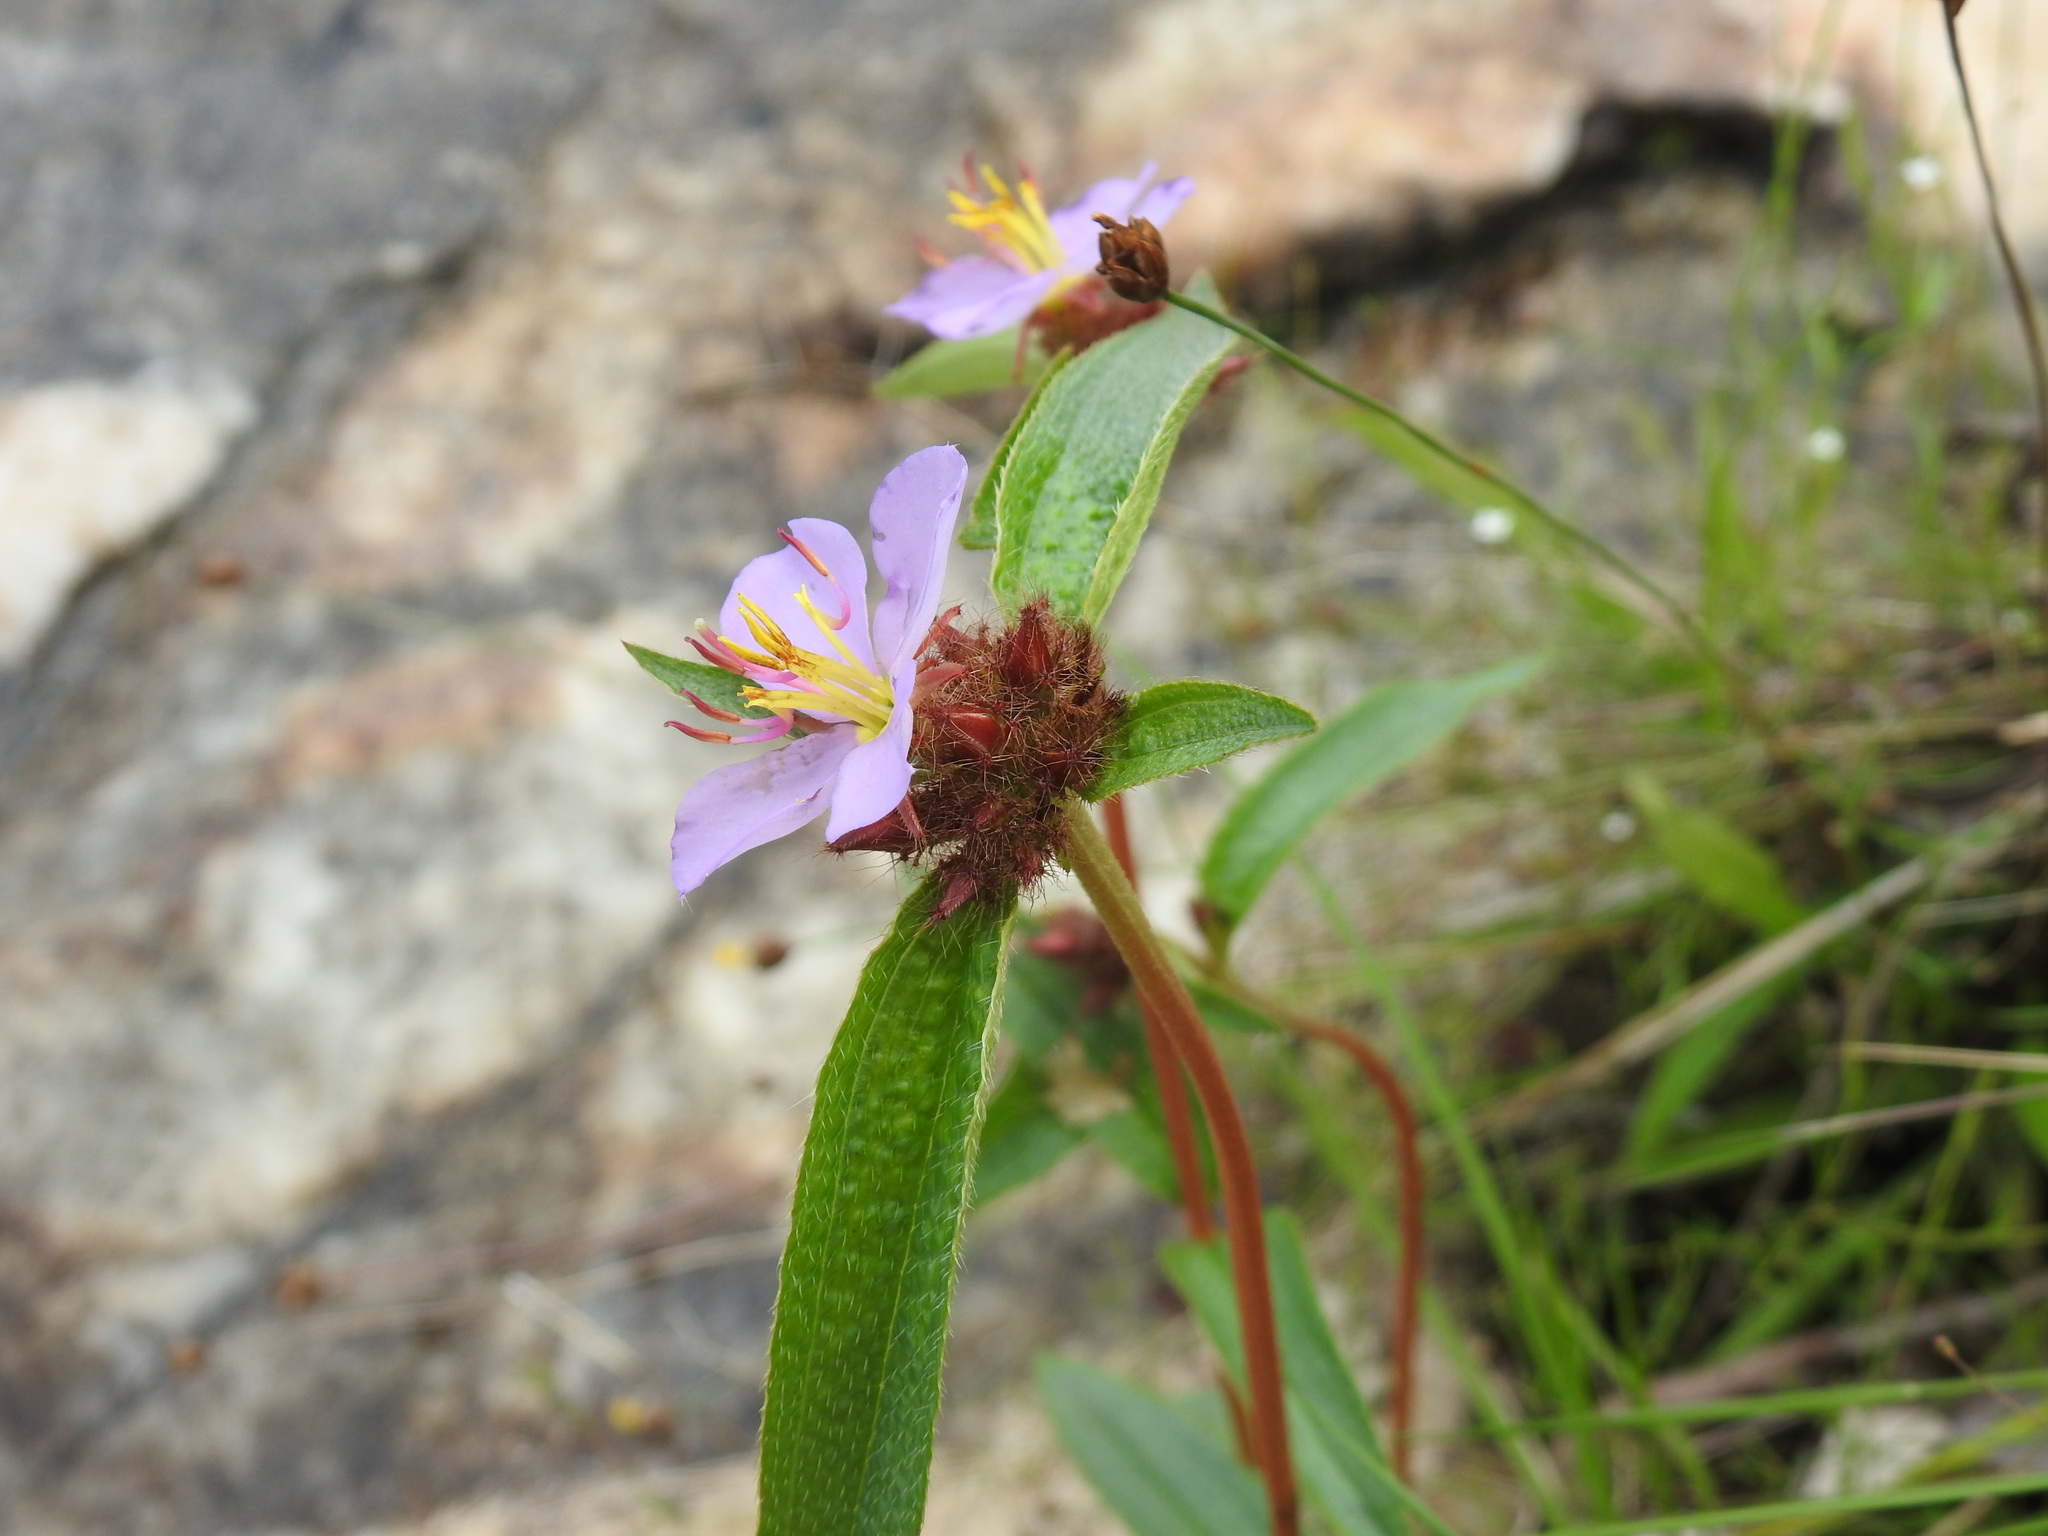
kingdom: Plantae
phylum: Tracheophyta
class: Magnoliopsida
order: Myrtales
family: Melastomataceae
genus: Antherotoma
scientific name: Antherotoma debilis
